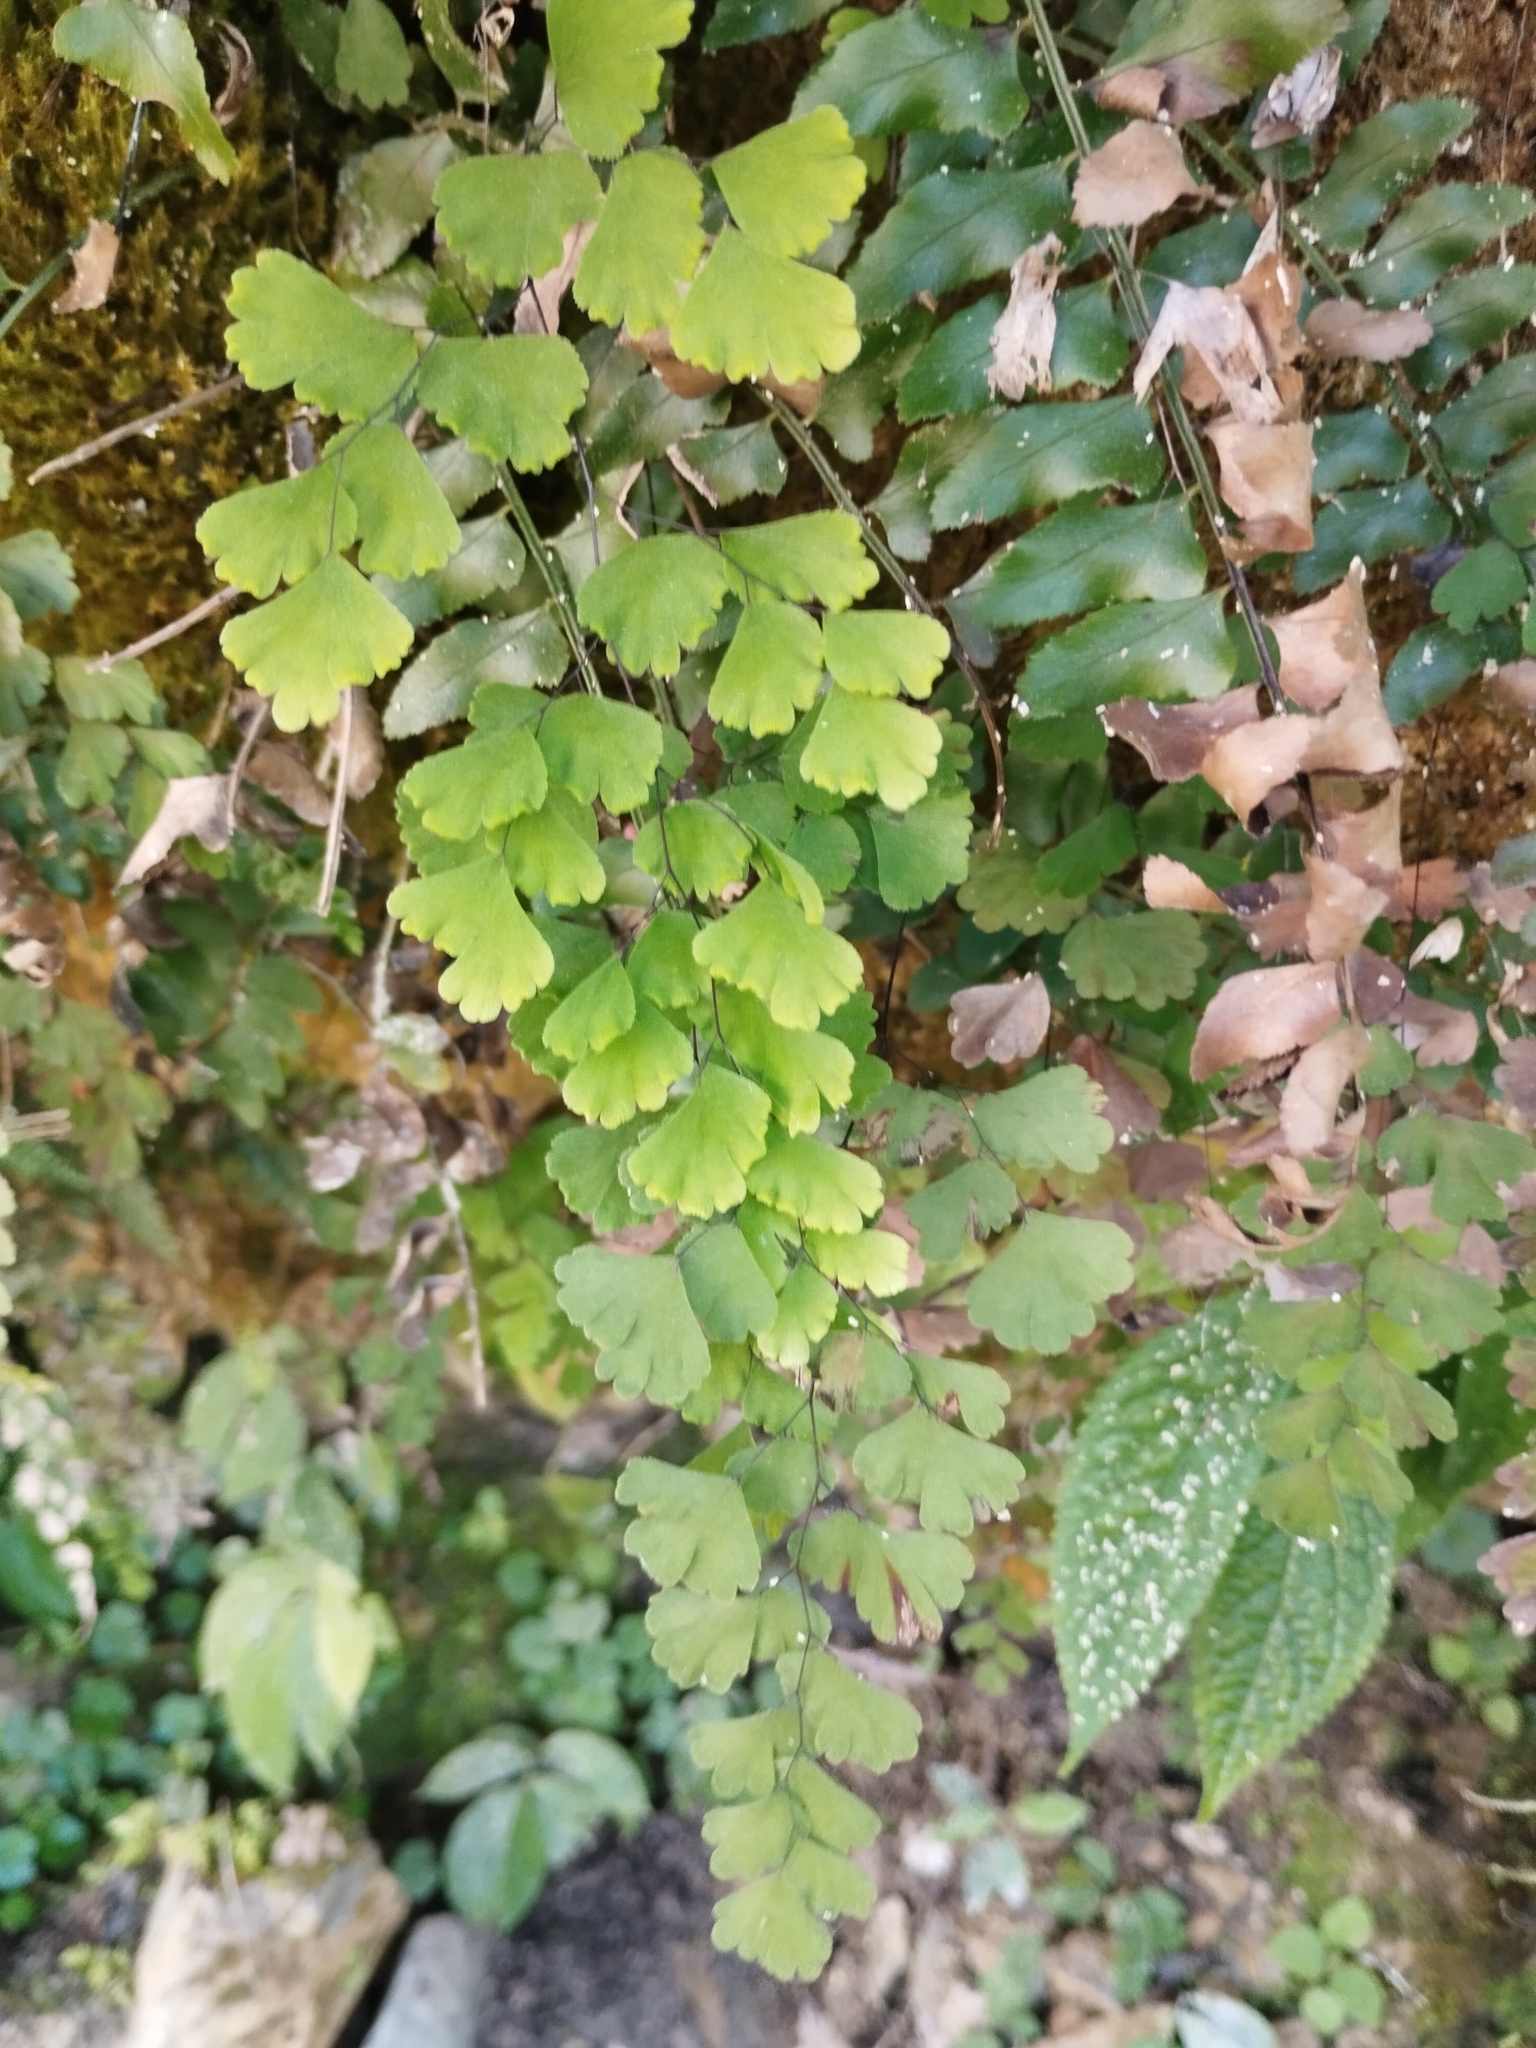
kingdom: Plantae
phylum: Tracheophyta
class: Polypodiopsida
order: Polypodiales
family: Pteridaceae
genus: Adiantum
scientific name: Adiantum capillus-veneris
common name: Maidenhair fern
